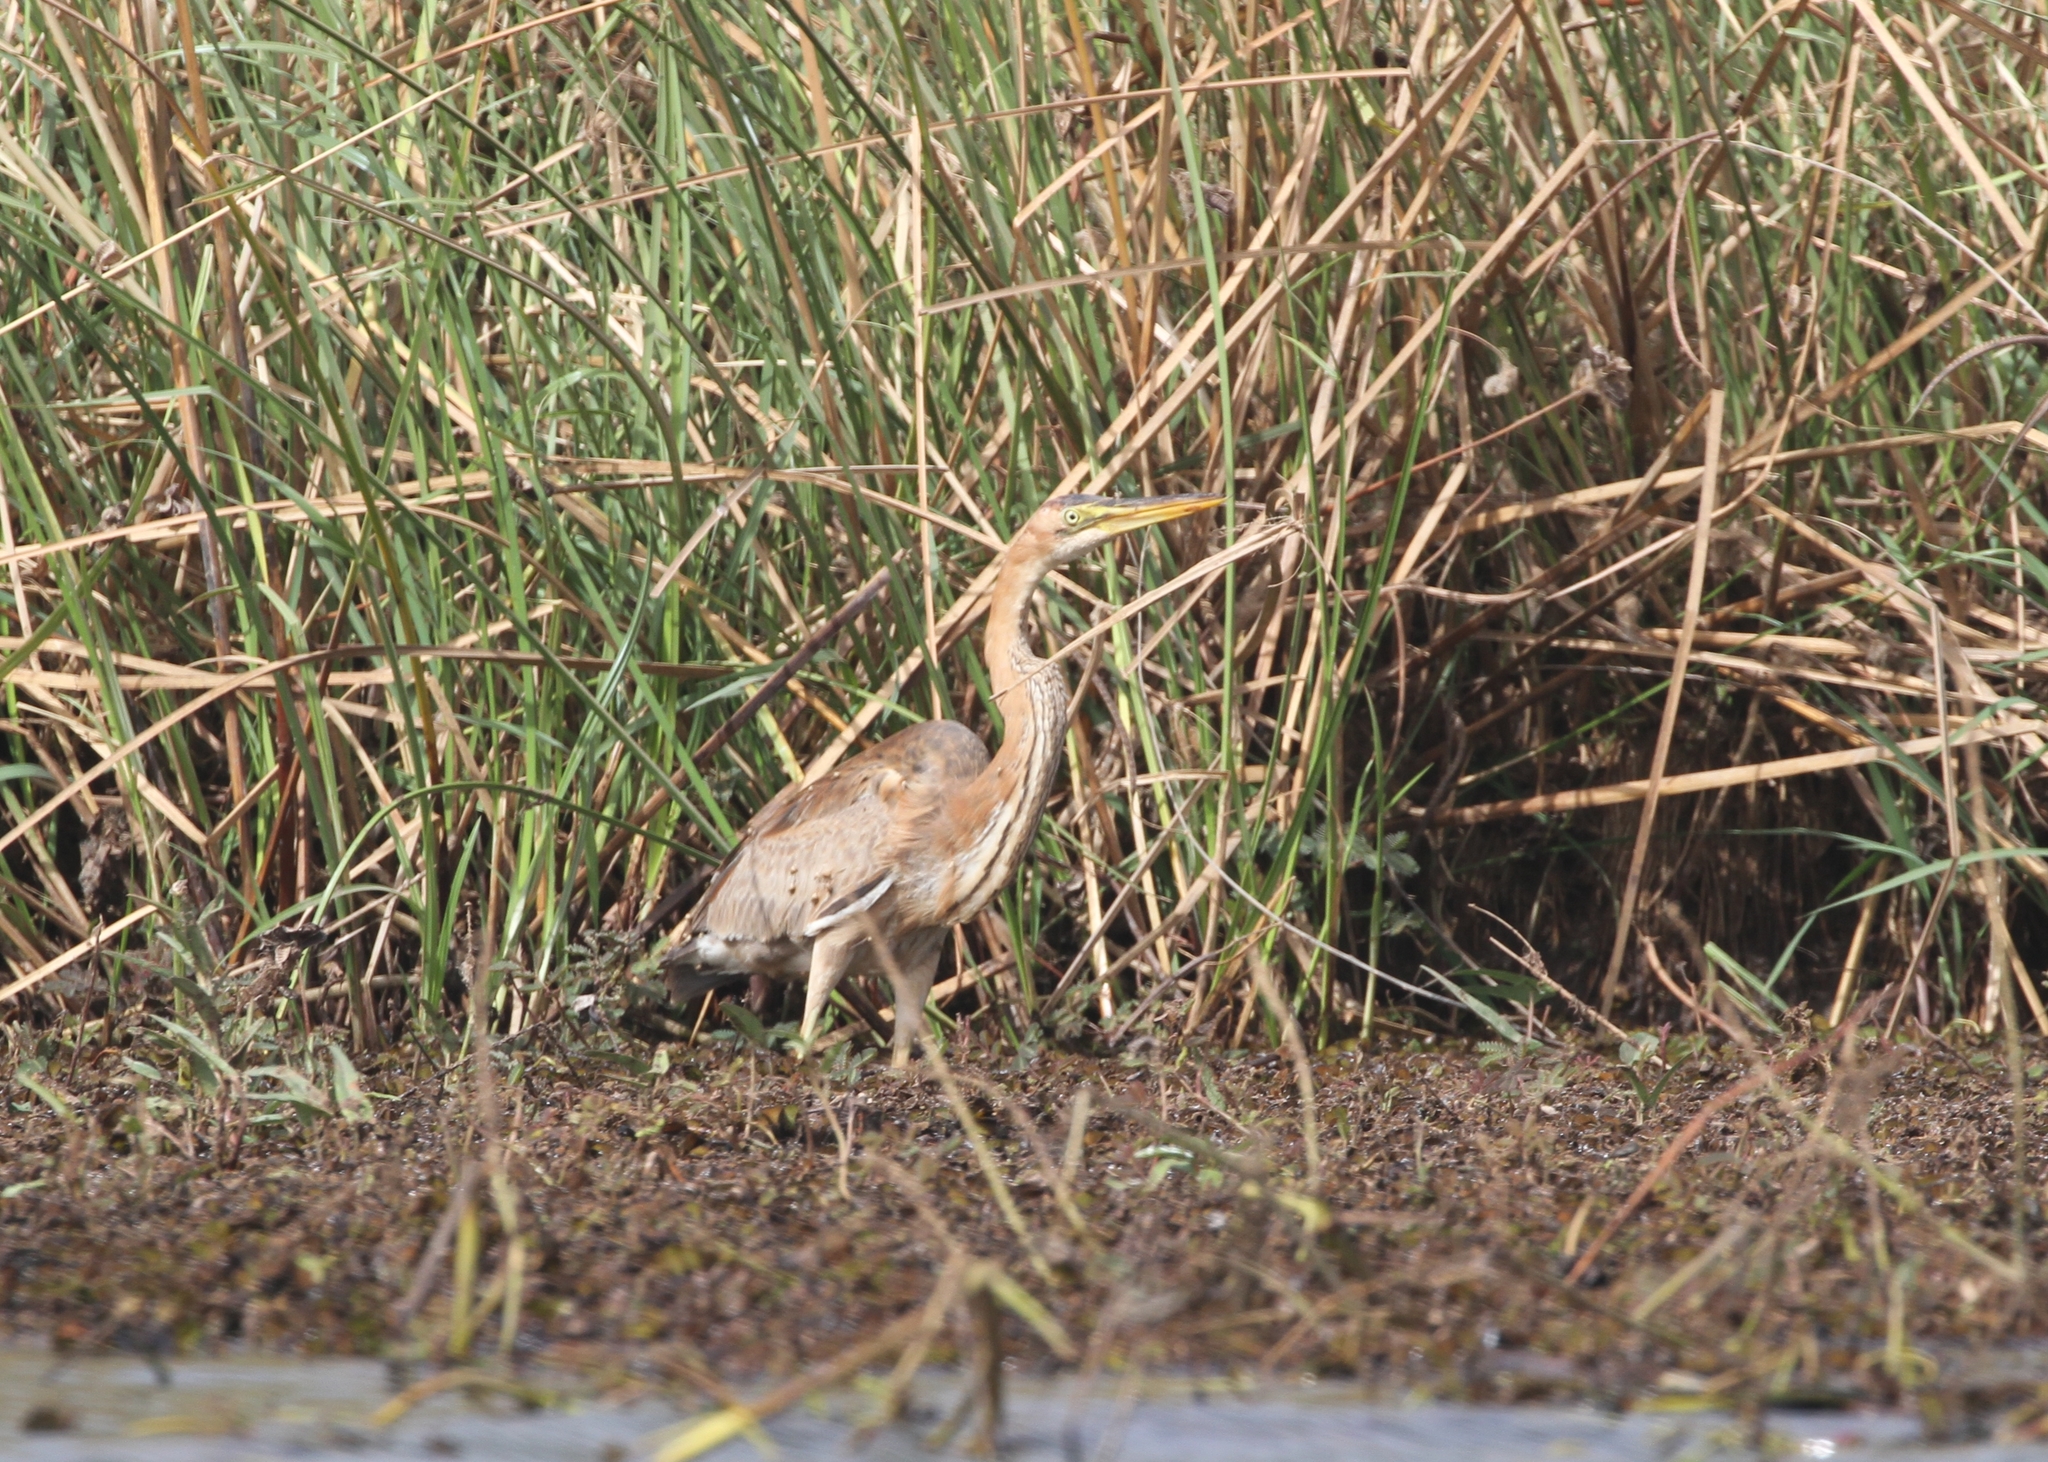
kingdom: Animalia
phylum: Chordata
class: Aves
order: Pelecaniformes
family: Ardeidae
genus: Ardea
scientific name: Ardea purpurea
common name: Purple heron
